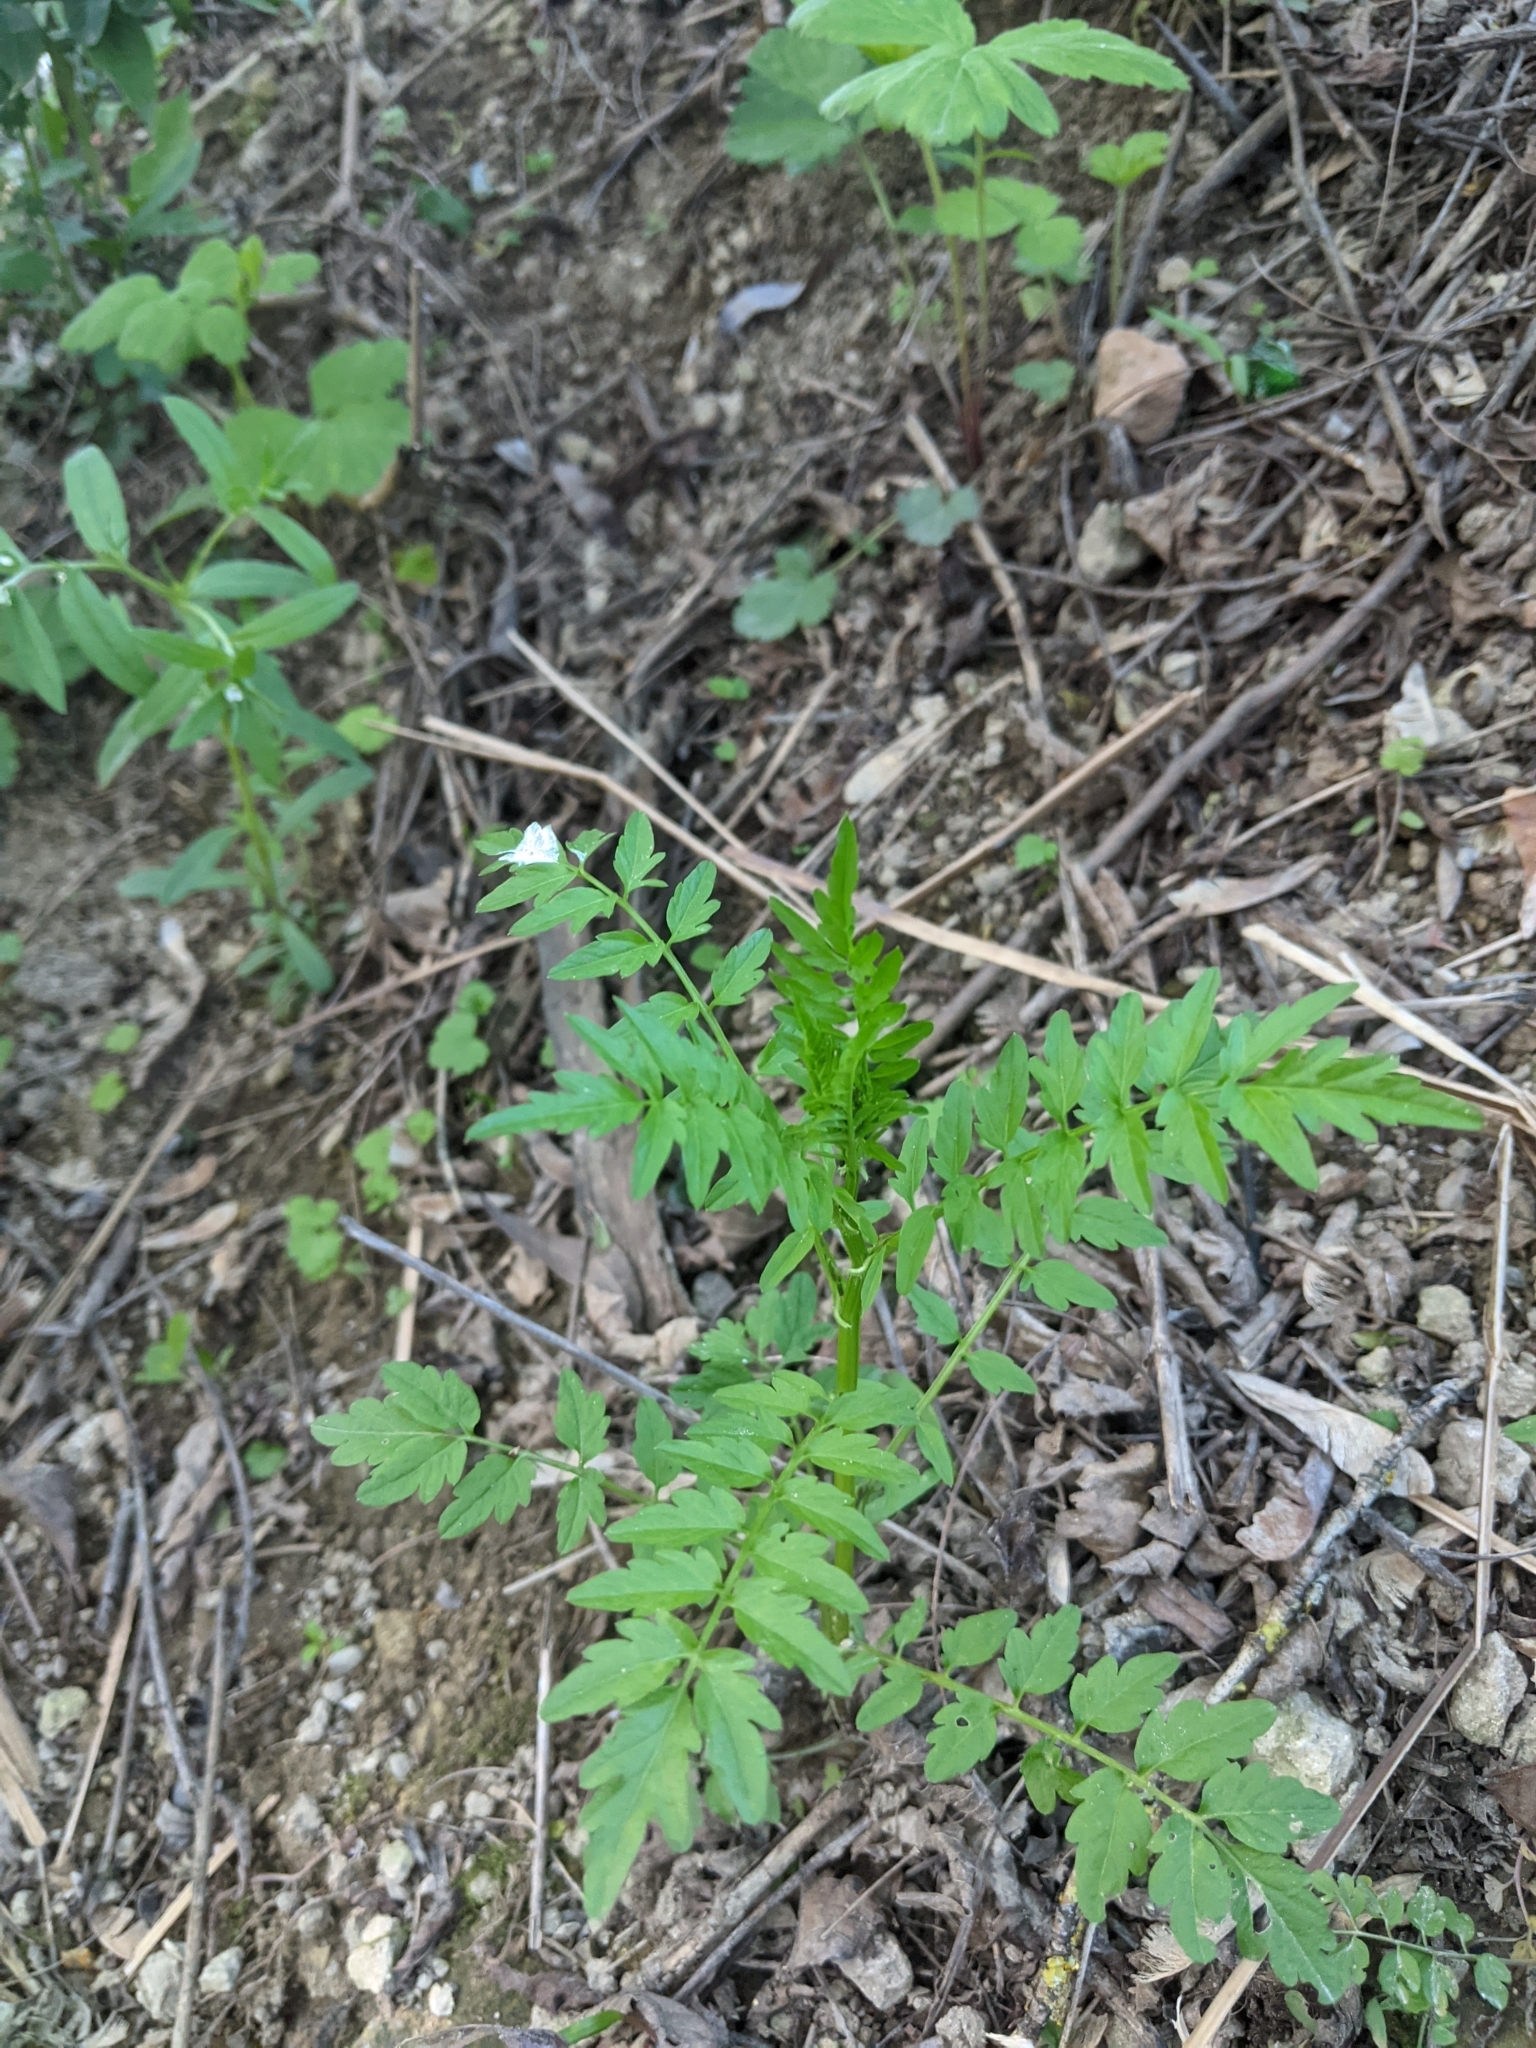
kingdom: Plantae
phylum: Tracheophyta
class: Magnoliopsida
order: Brassicales
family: Brassicaceae
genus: Cardamine
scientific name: Cardamine impatiens
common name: Narrow-leaved bitter-cress
